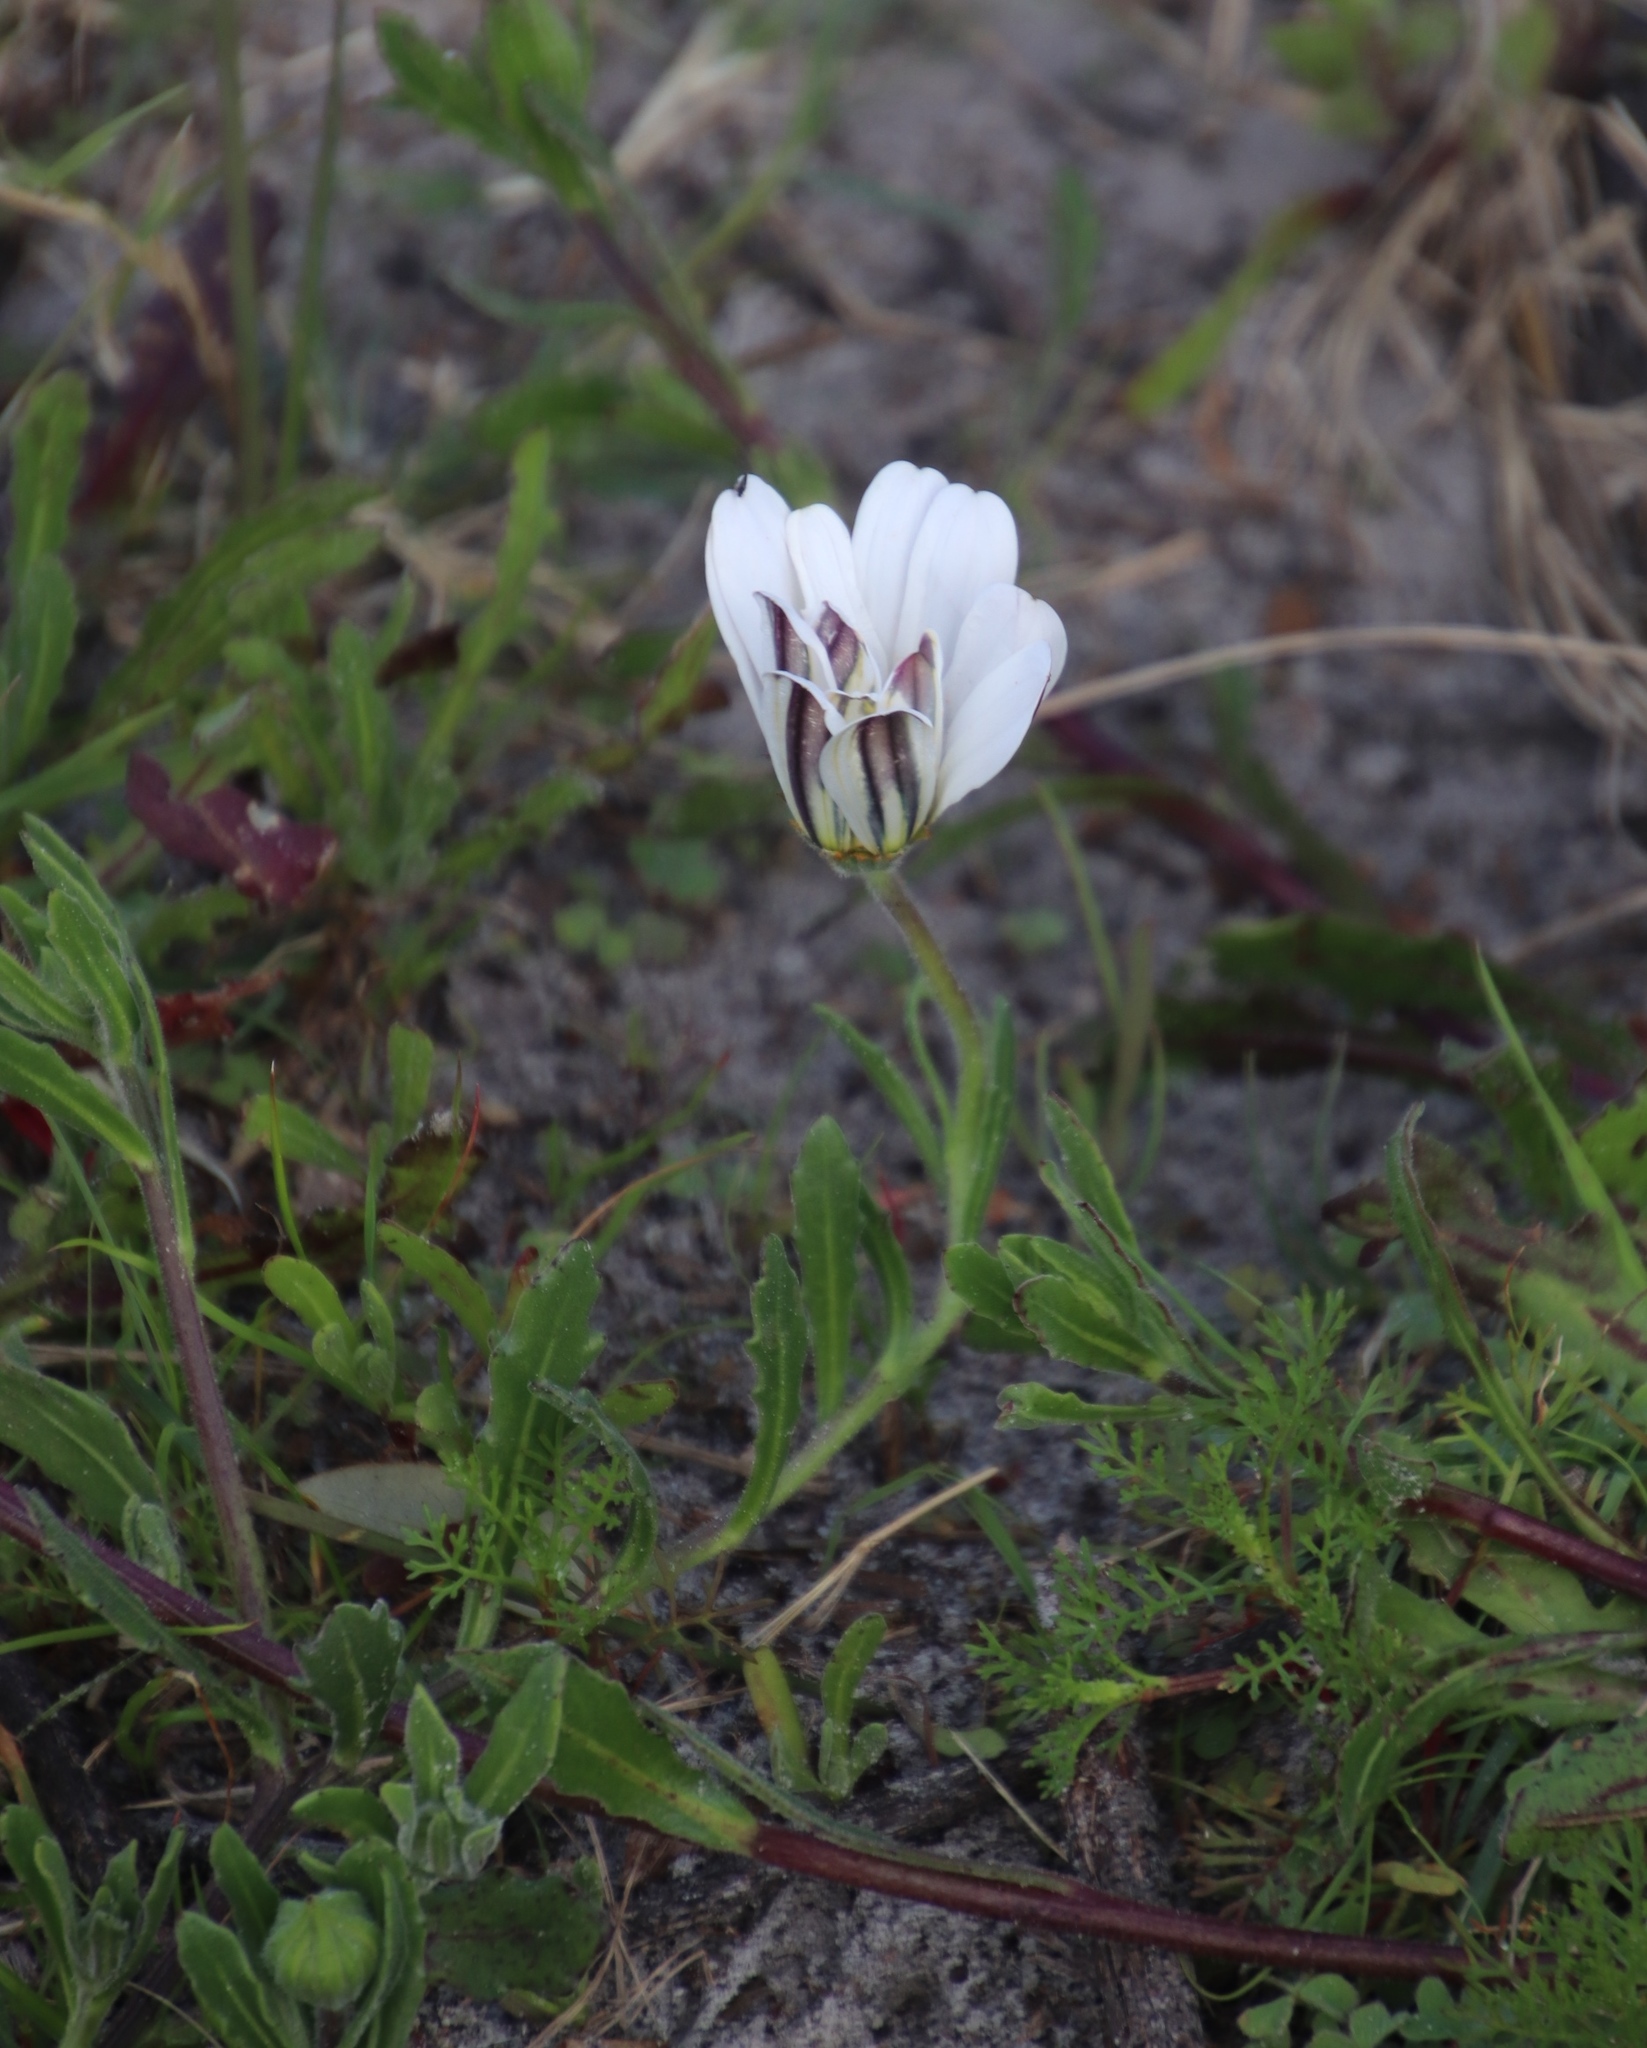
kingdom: Plantae
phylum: Tracheophyta
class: Magnoliopsida
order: Asterales
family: Asteraceae
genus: Dimorphotheca
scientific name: Dimorphotheca pluvialis
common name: Weather prophet
